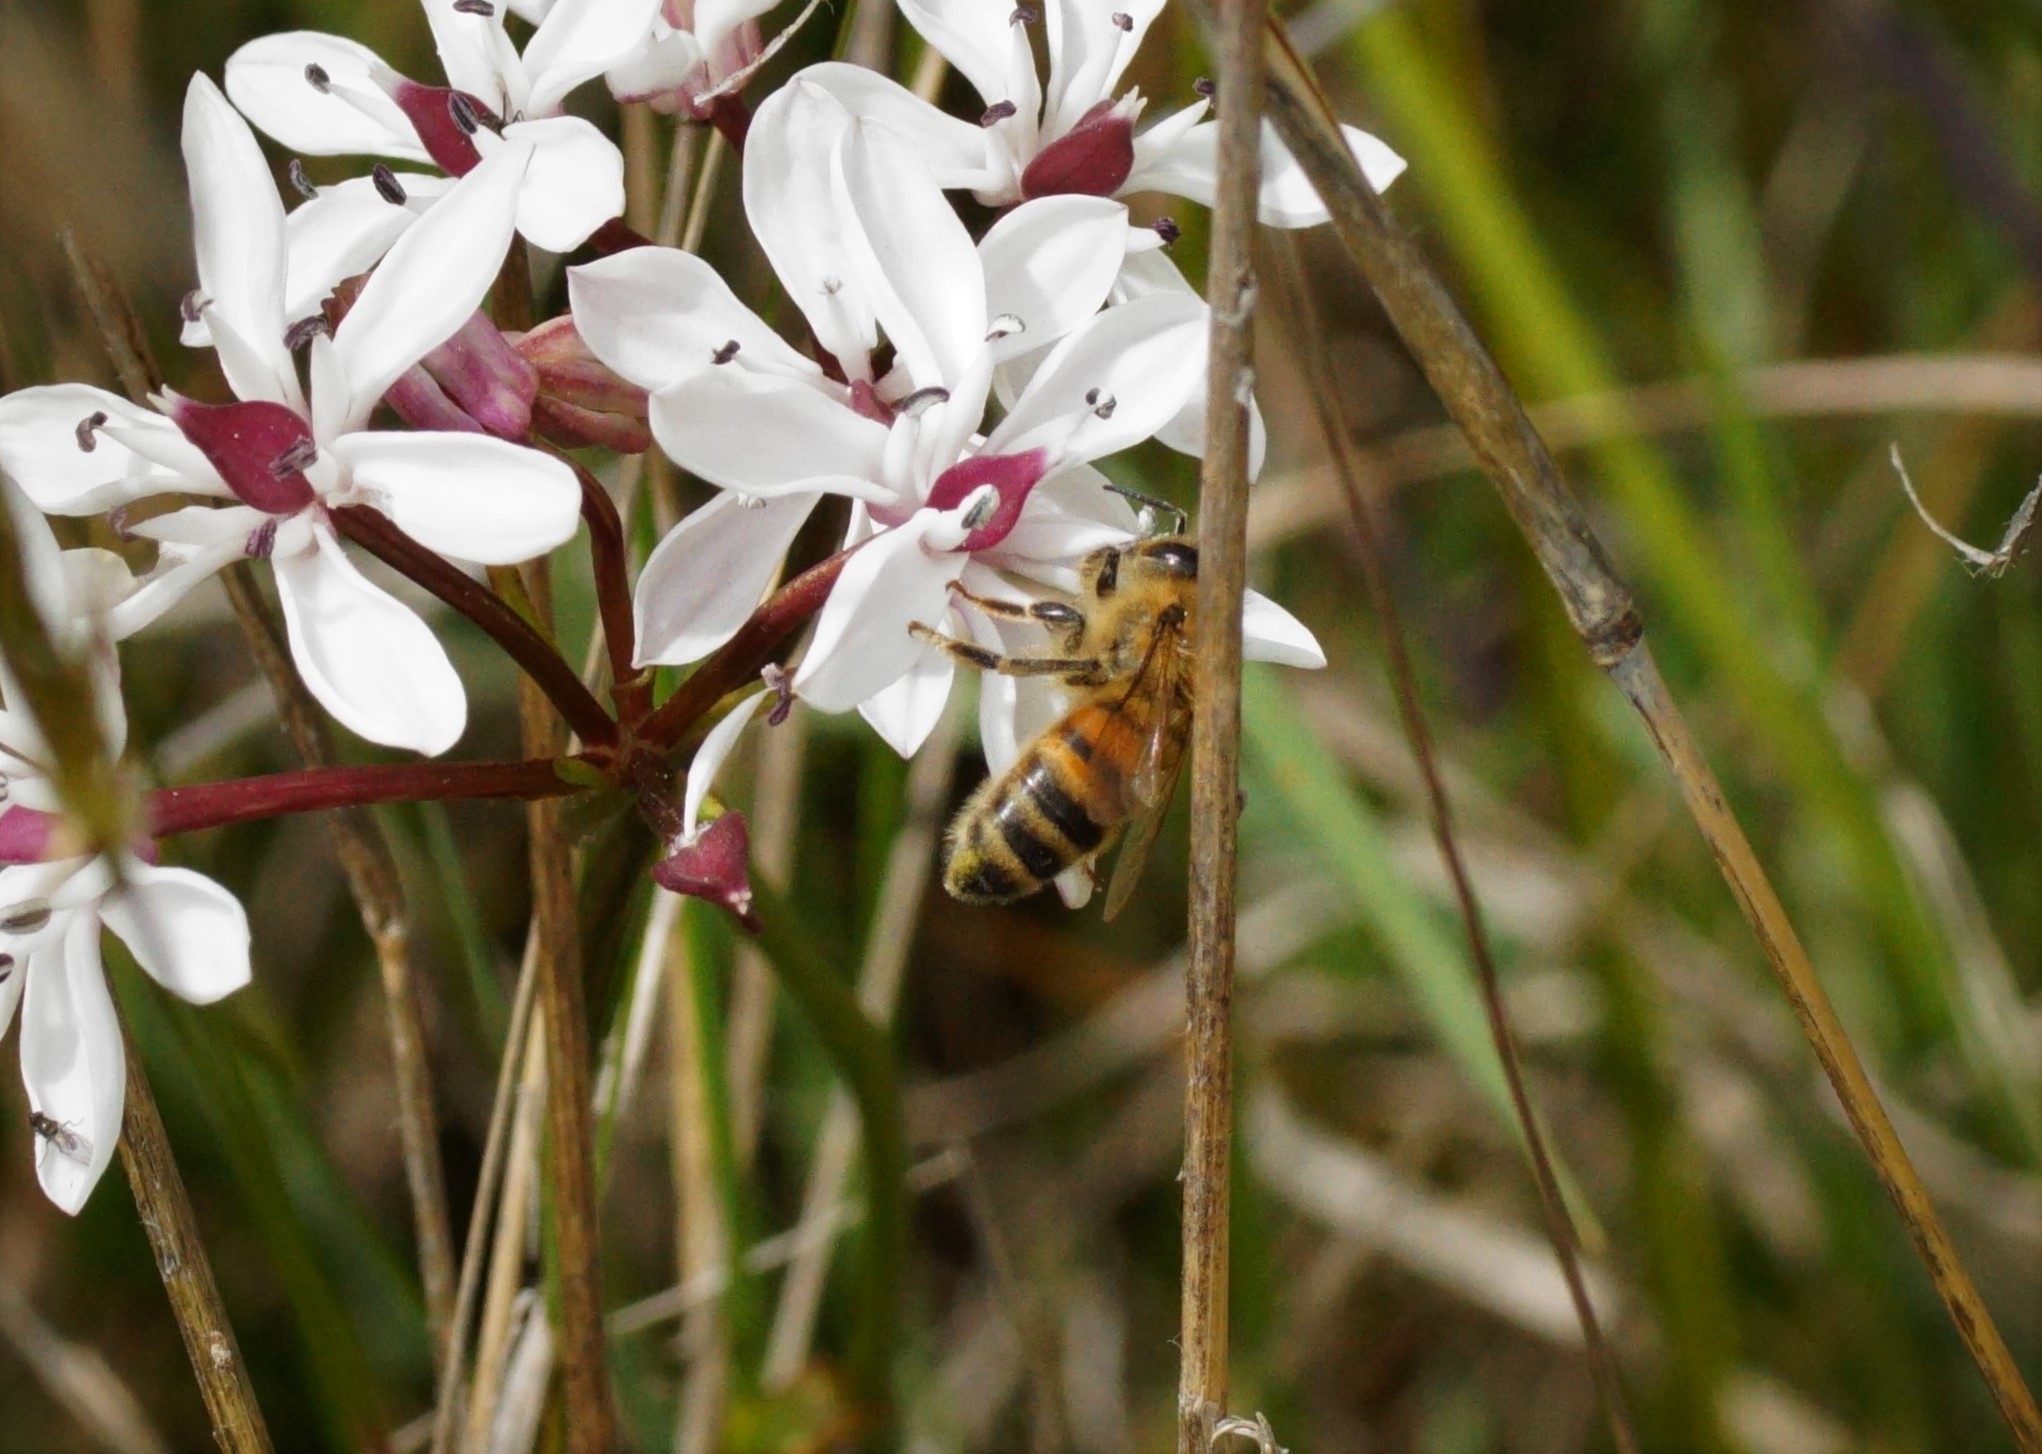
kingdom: Animalia
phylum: Arthropoda
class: Insecta
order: Hymenoptera
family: Apidae
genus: Apis
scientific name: Apis mellifera
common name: Honey bee
